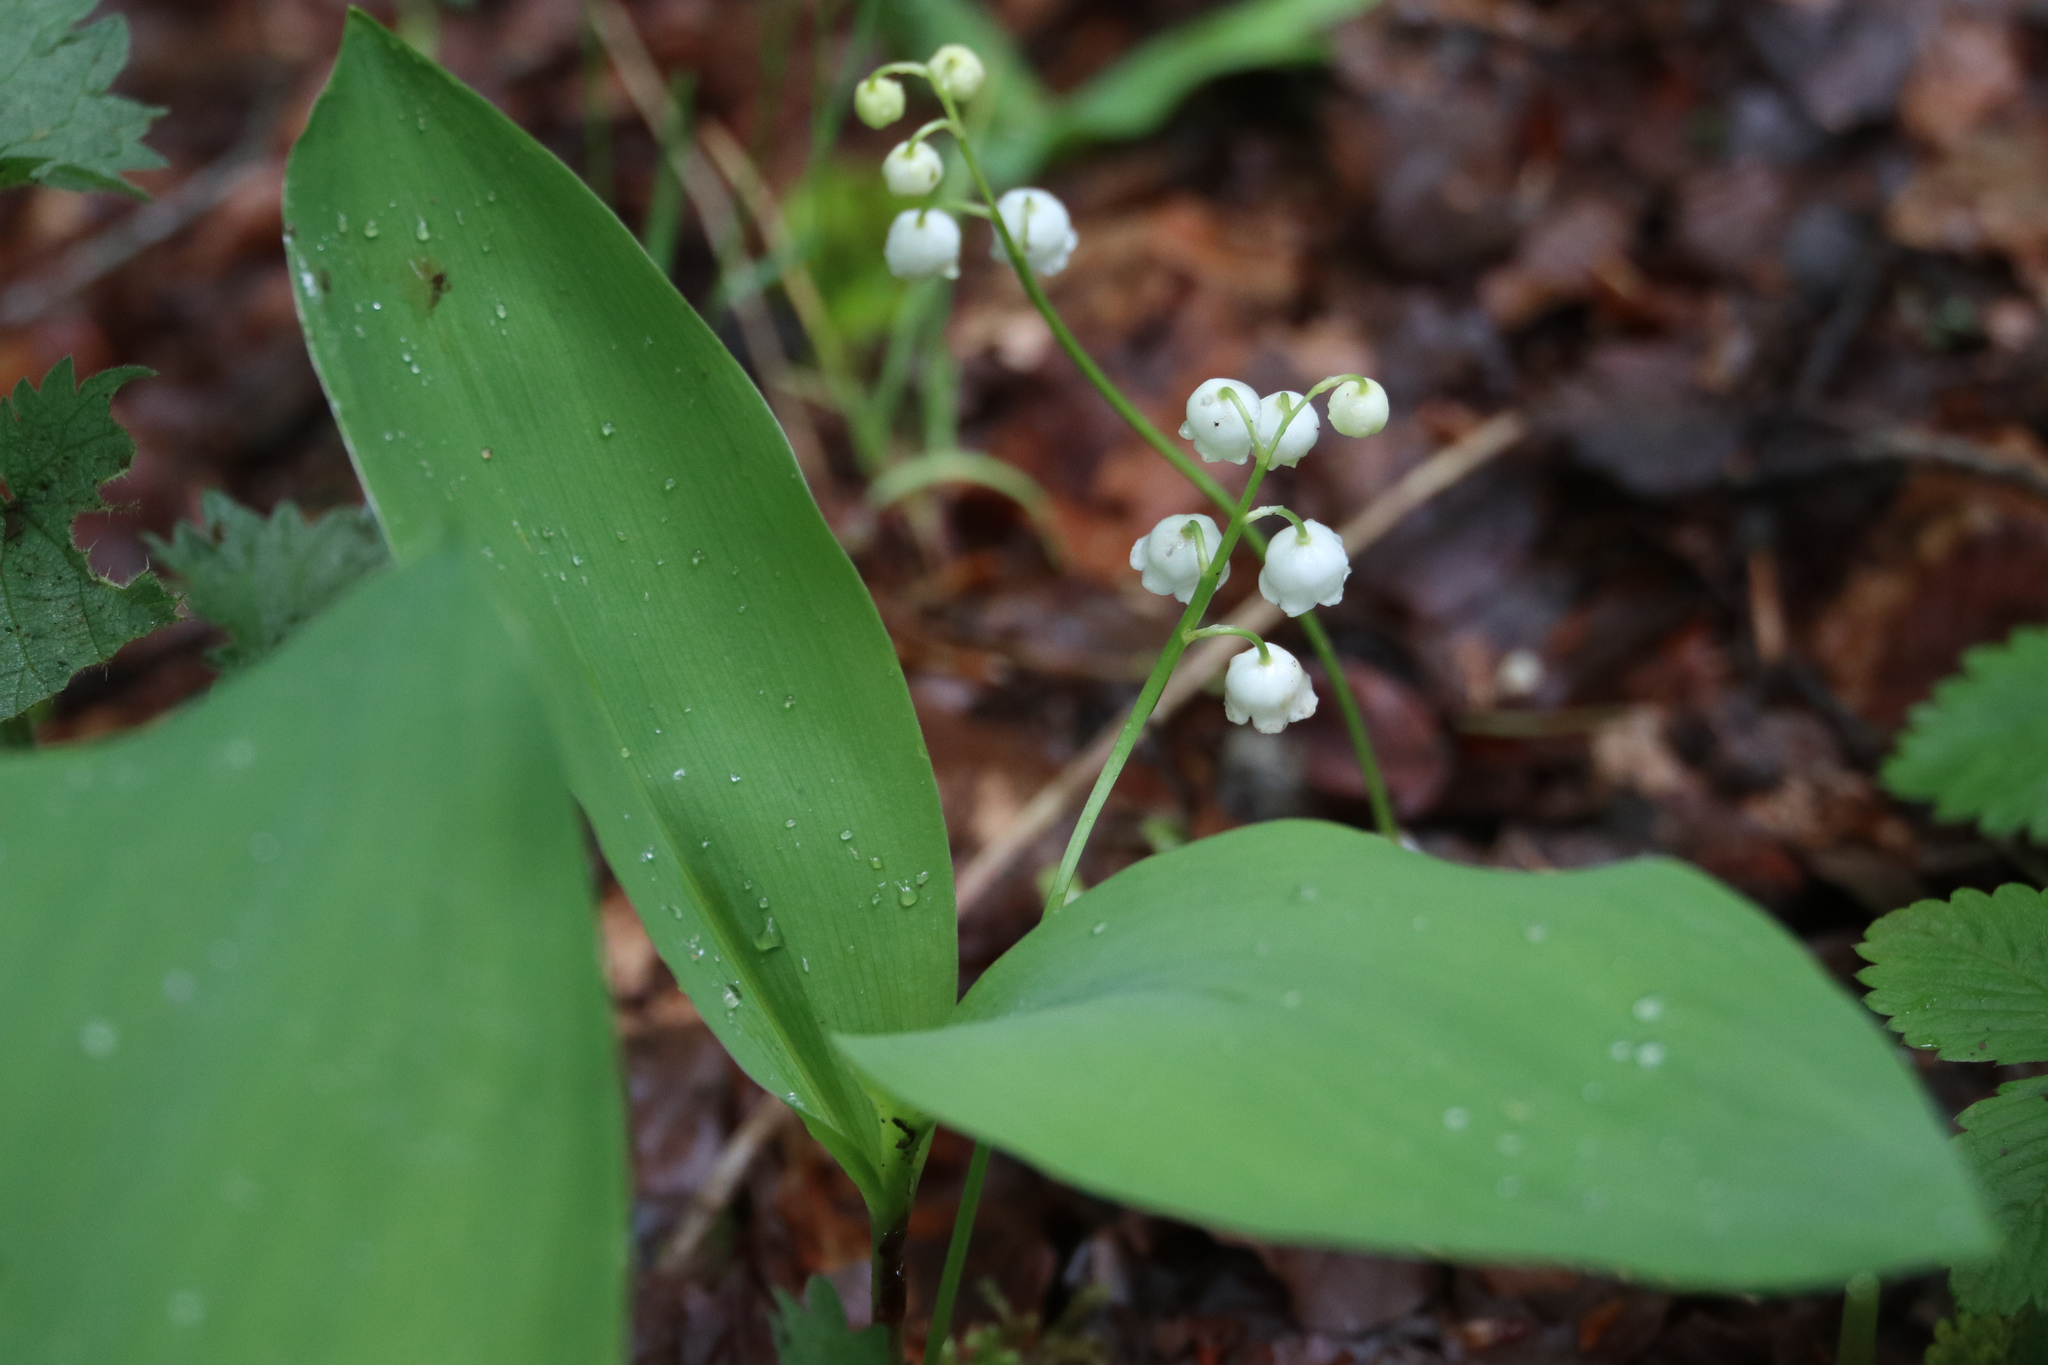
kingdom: Plantae
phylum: Tracheophyta
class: Liliopsida
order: Asparagales
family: Asparagaceae
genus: Convallaria
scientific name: Convallaria majalis
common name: Lily-of-the-valley
